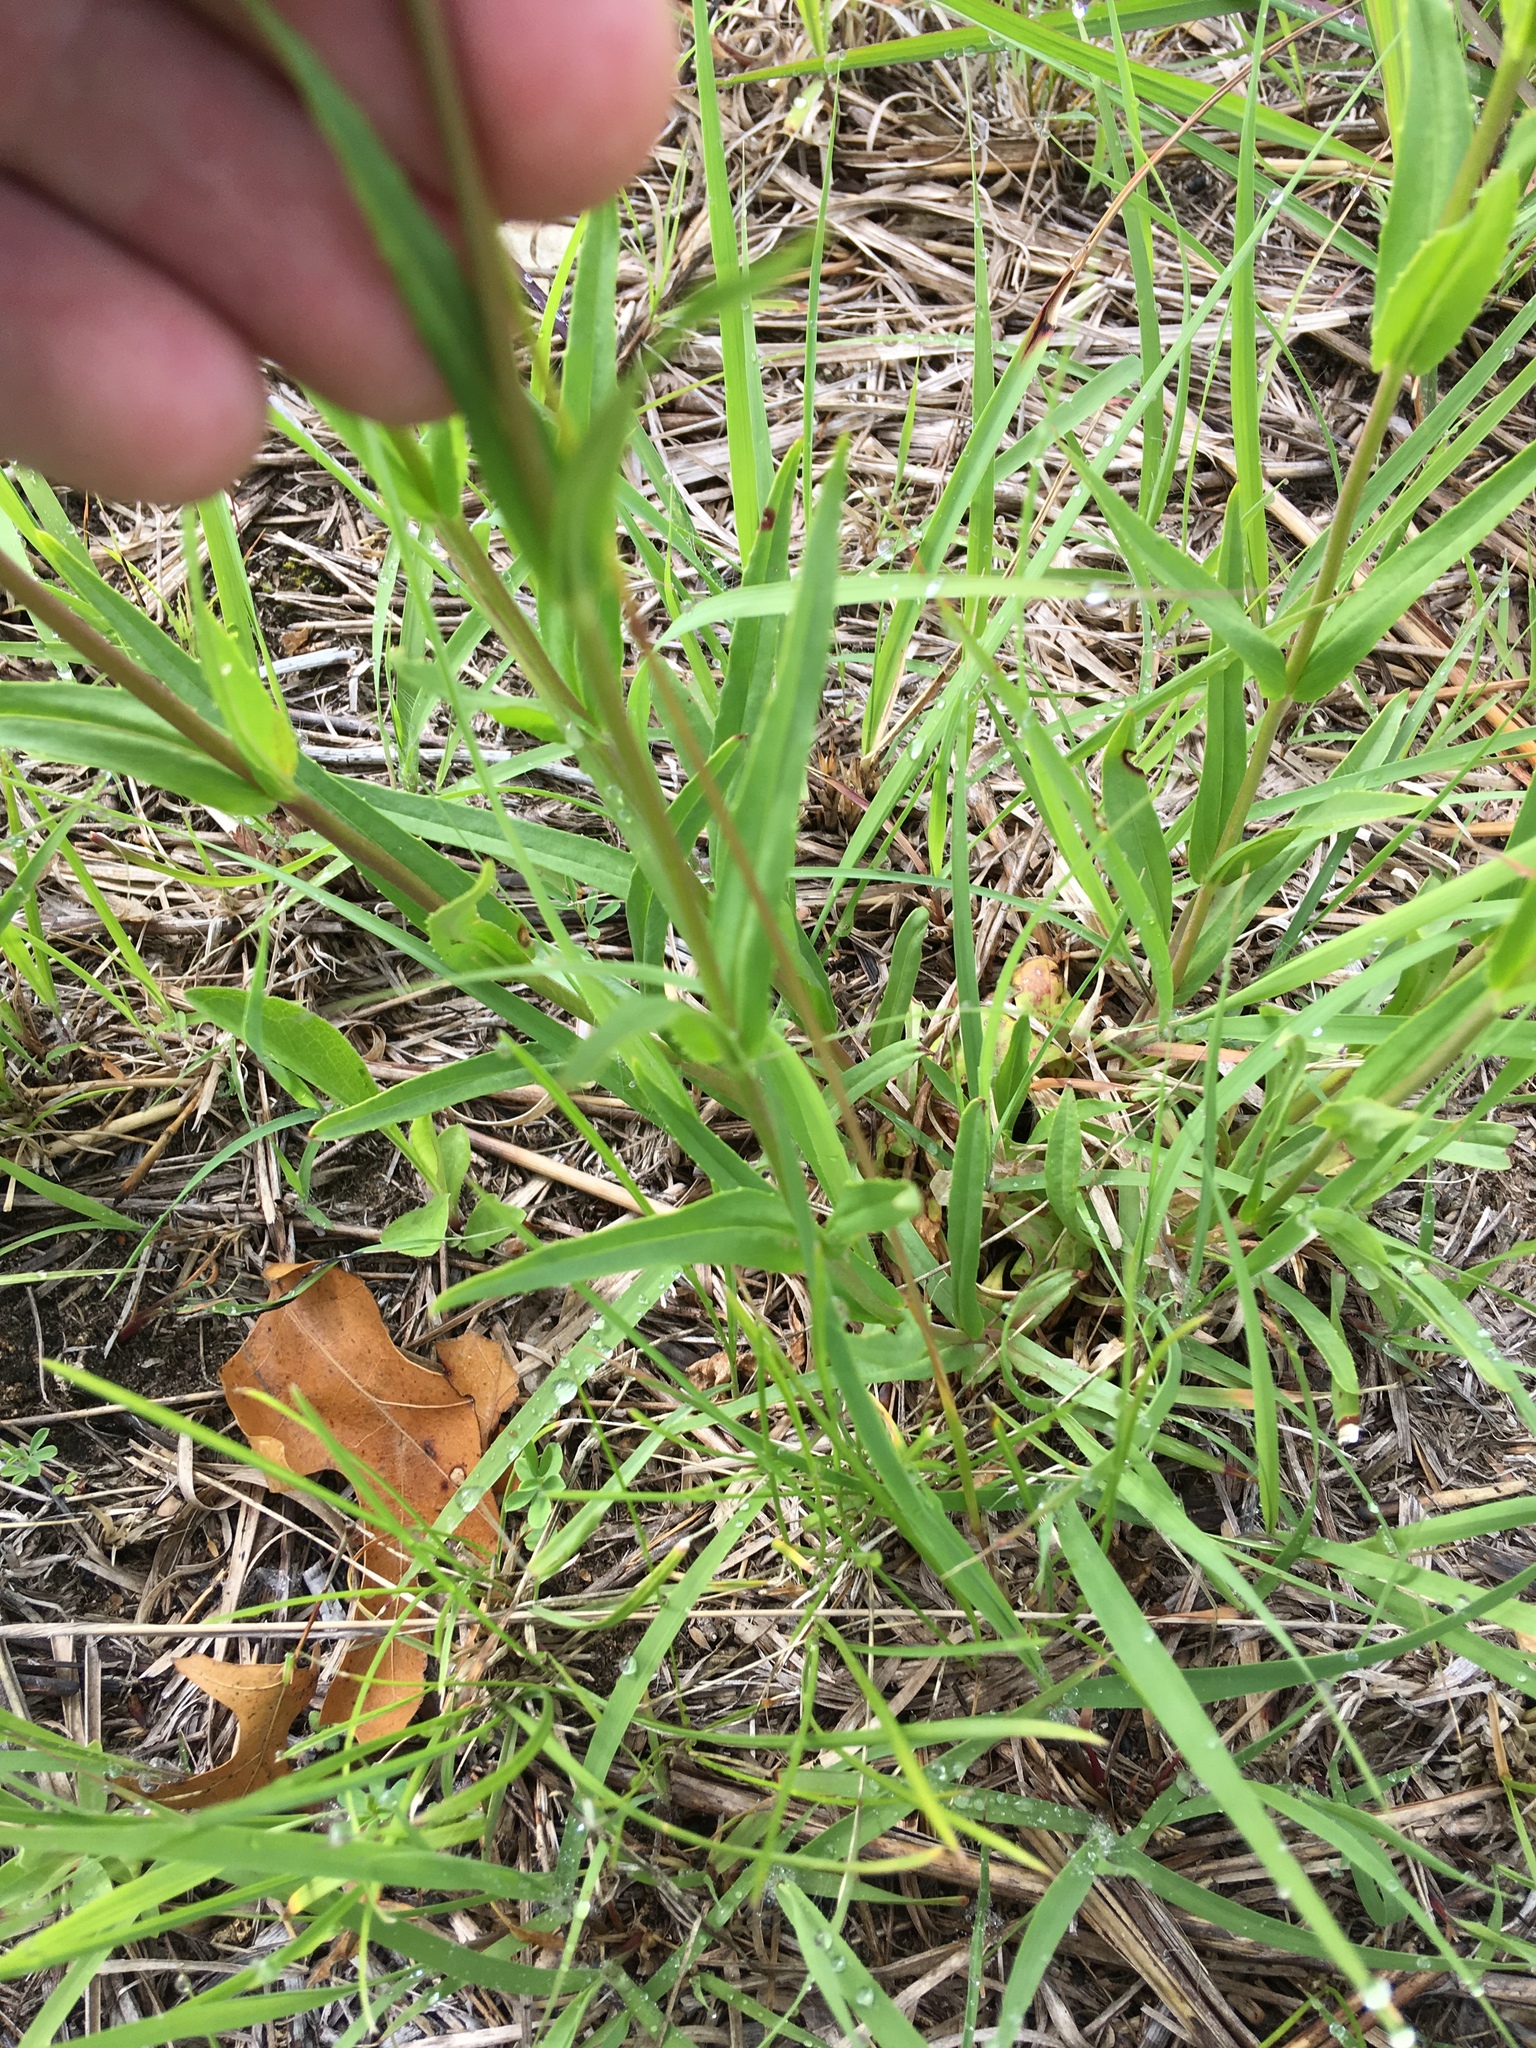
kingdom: Plantae
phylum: Tracheophyta
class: Magnoliopsida
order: Lamiales
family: Plantaginaceae
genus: Penstemon
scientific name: Penstemon gracilis
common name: Slender beardtongue
